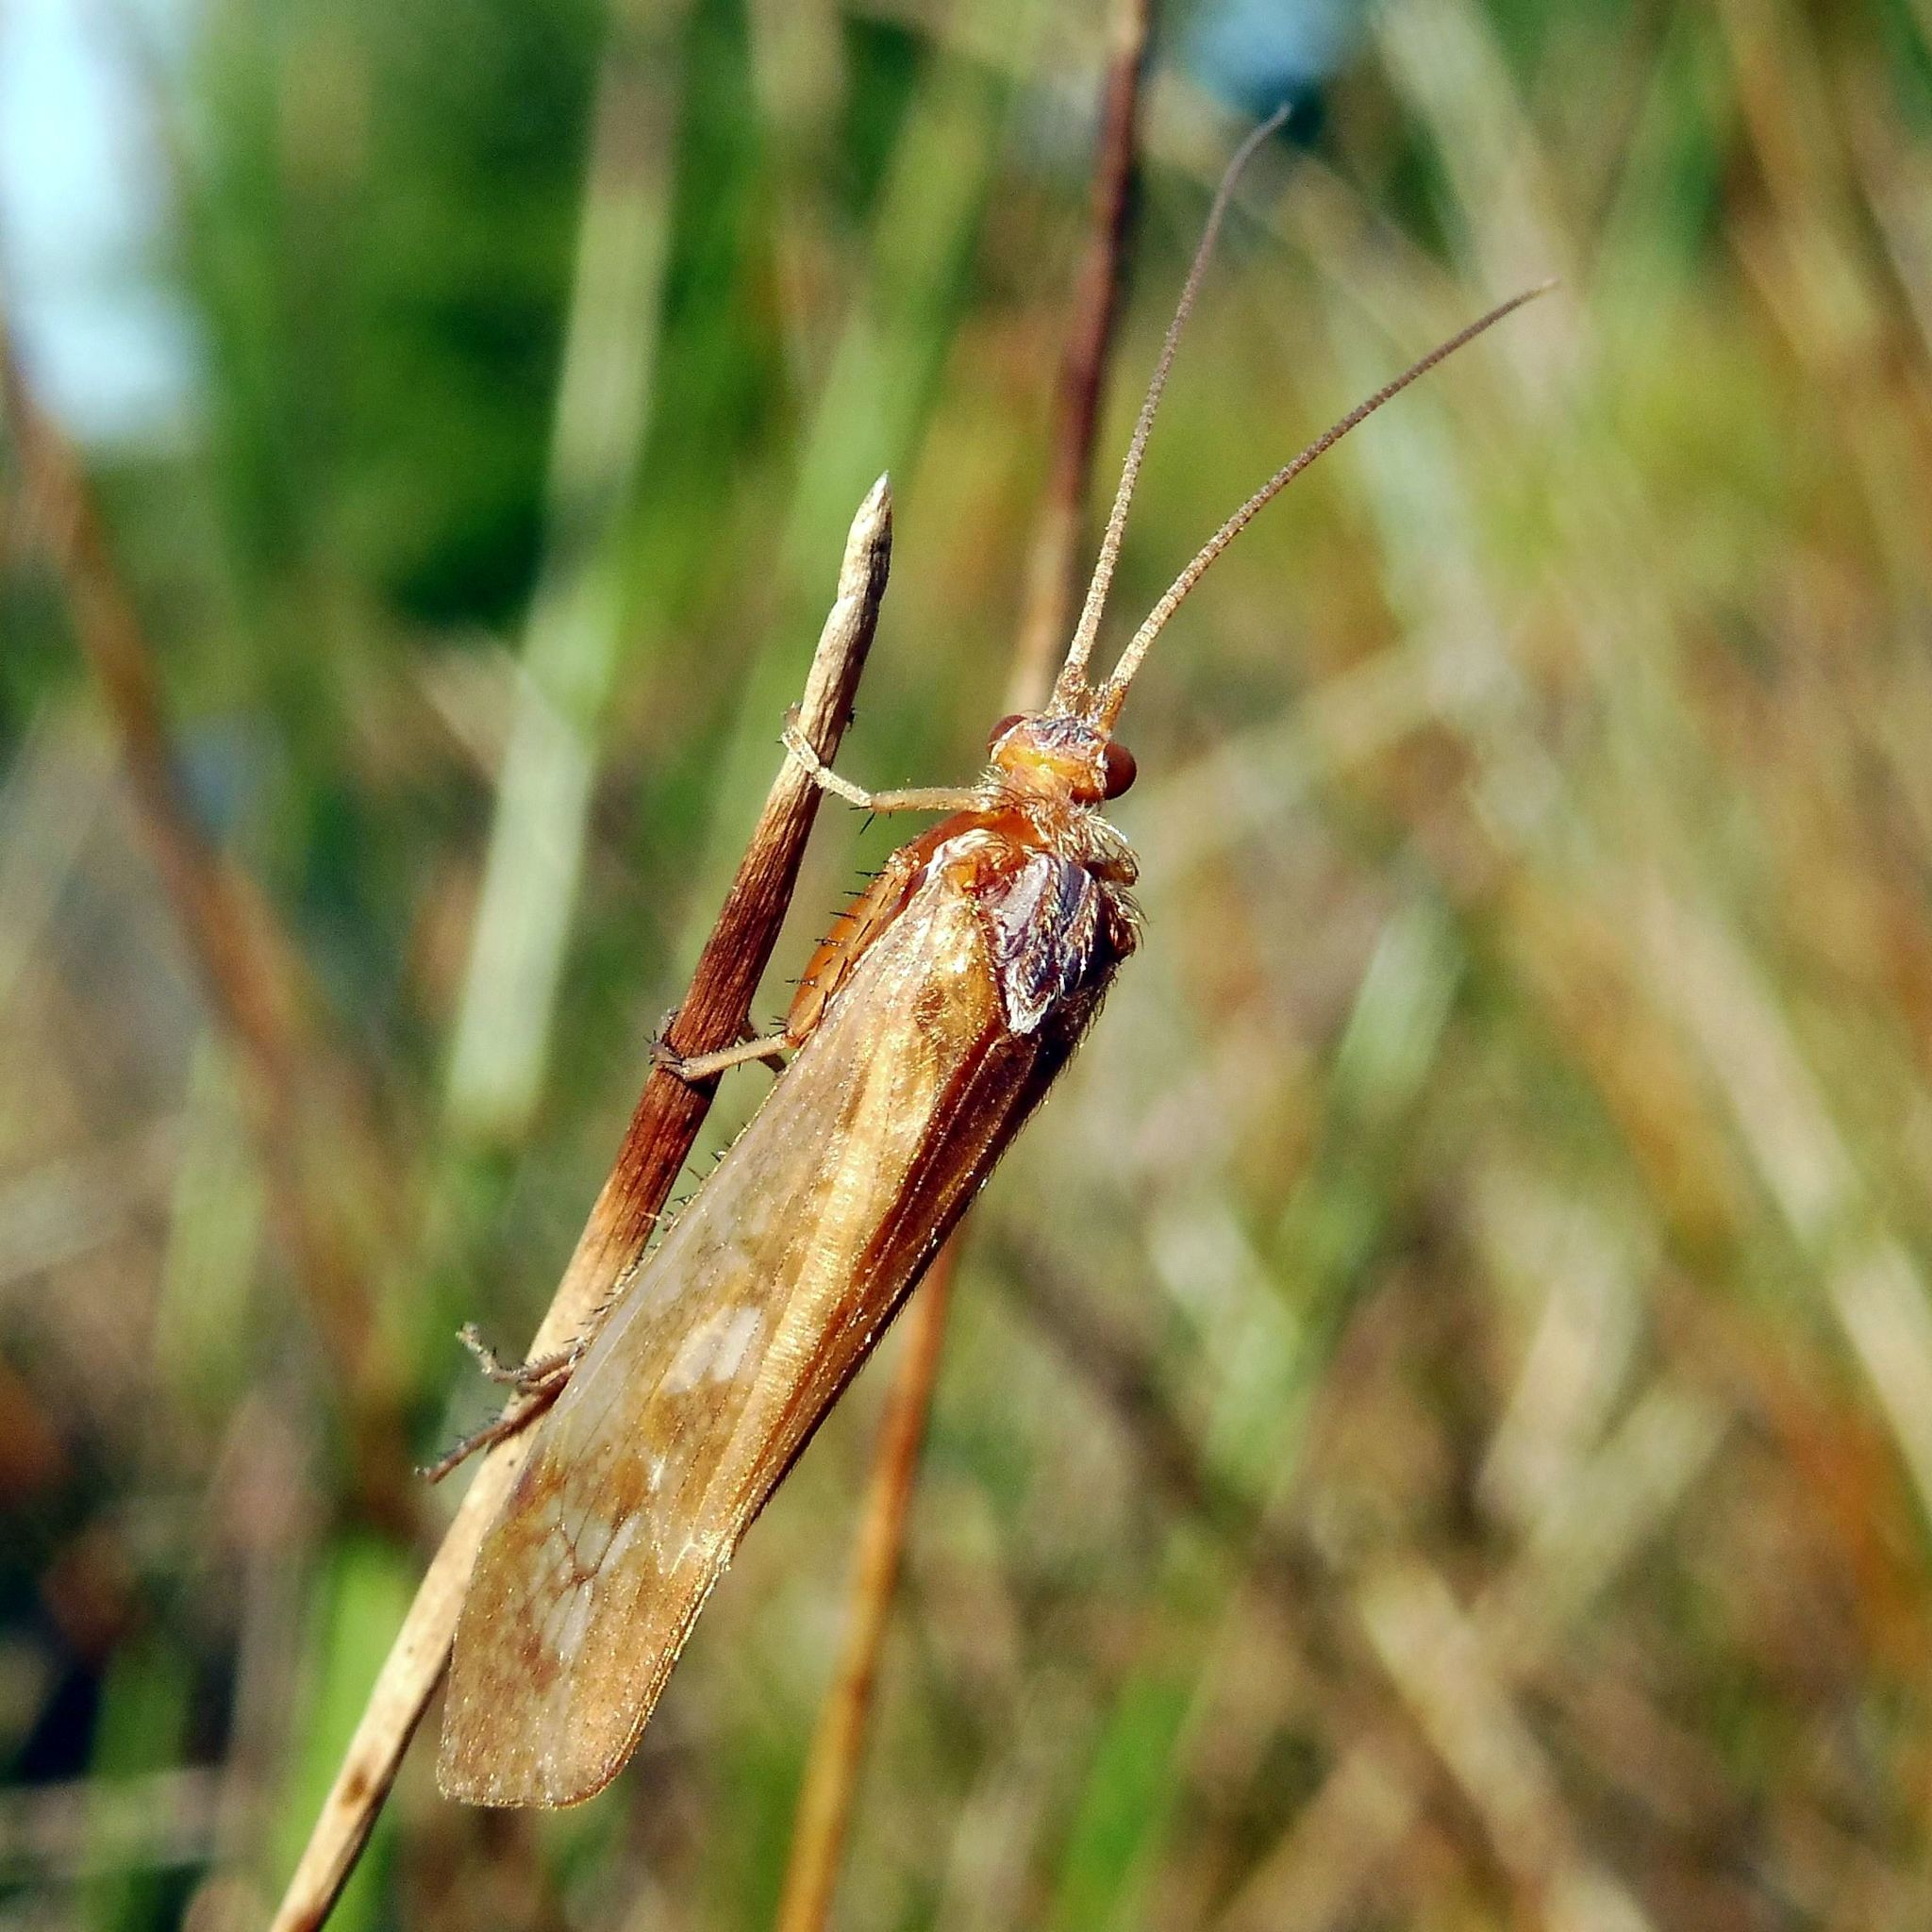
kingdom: Animalia
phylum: Arthropoda
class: Insecta
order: Trichoptera
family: Limnephilidae
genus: Limnephilus
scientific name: Limnephilus marmoratus
